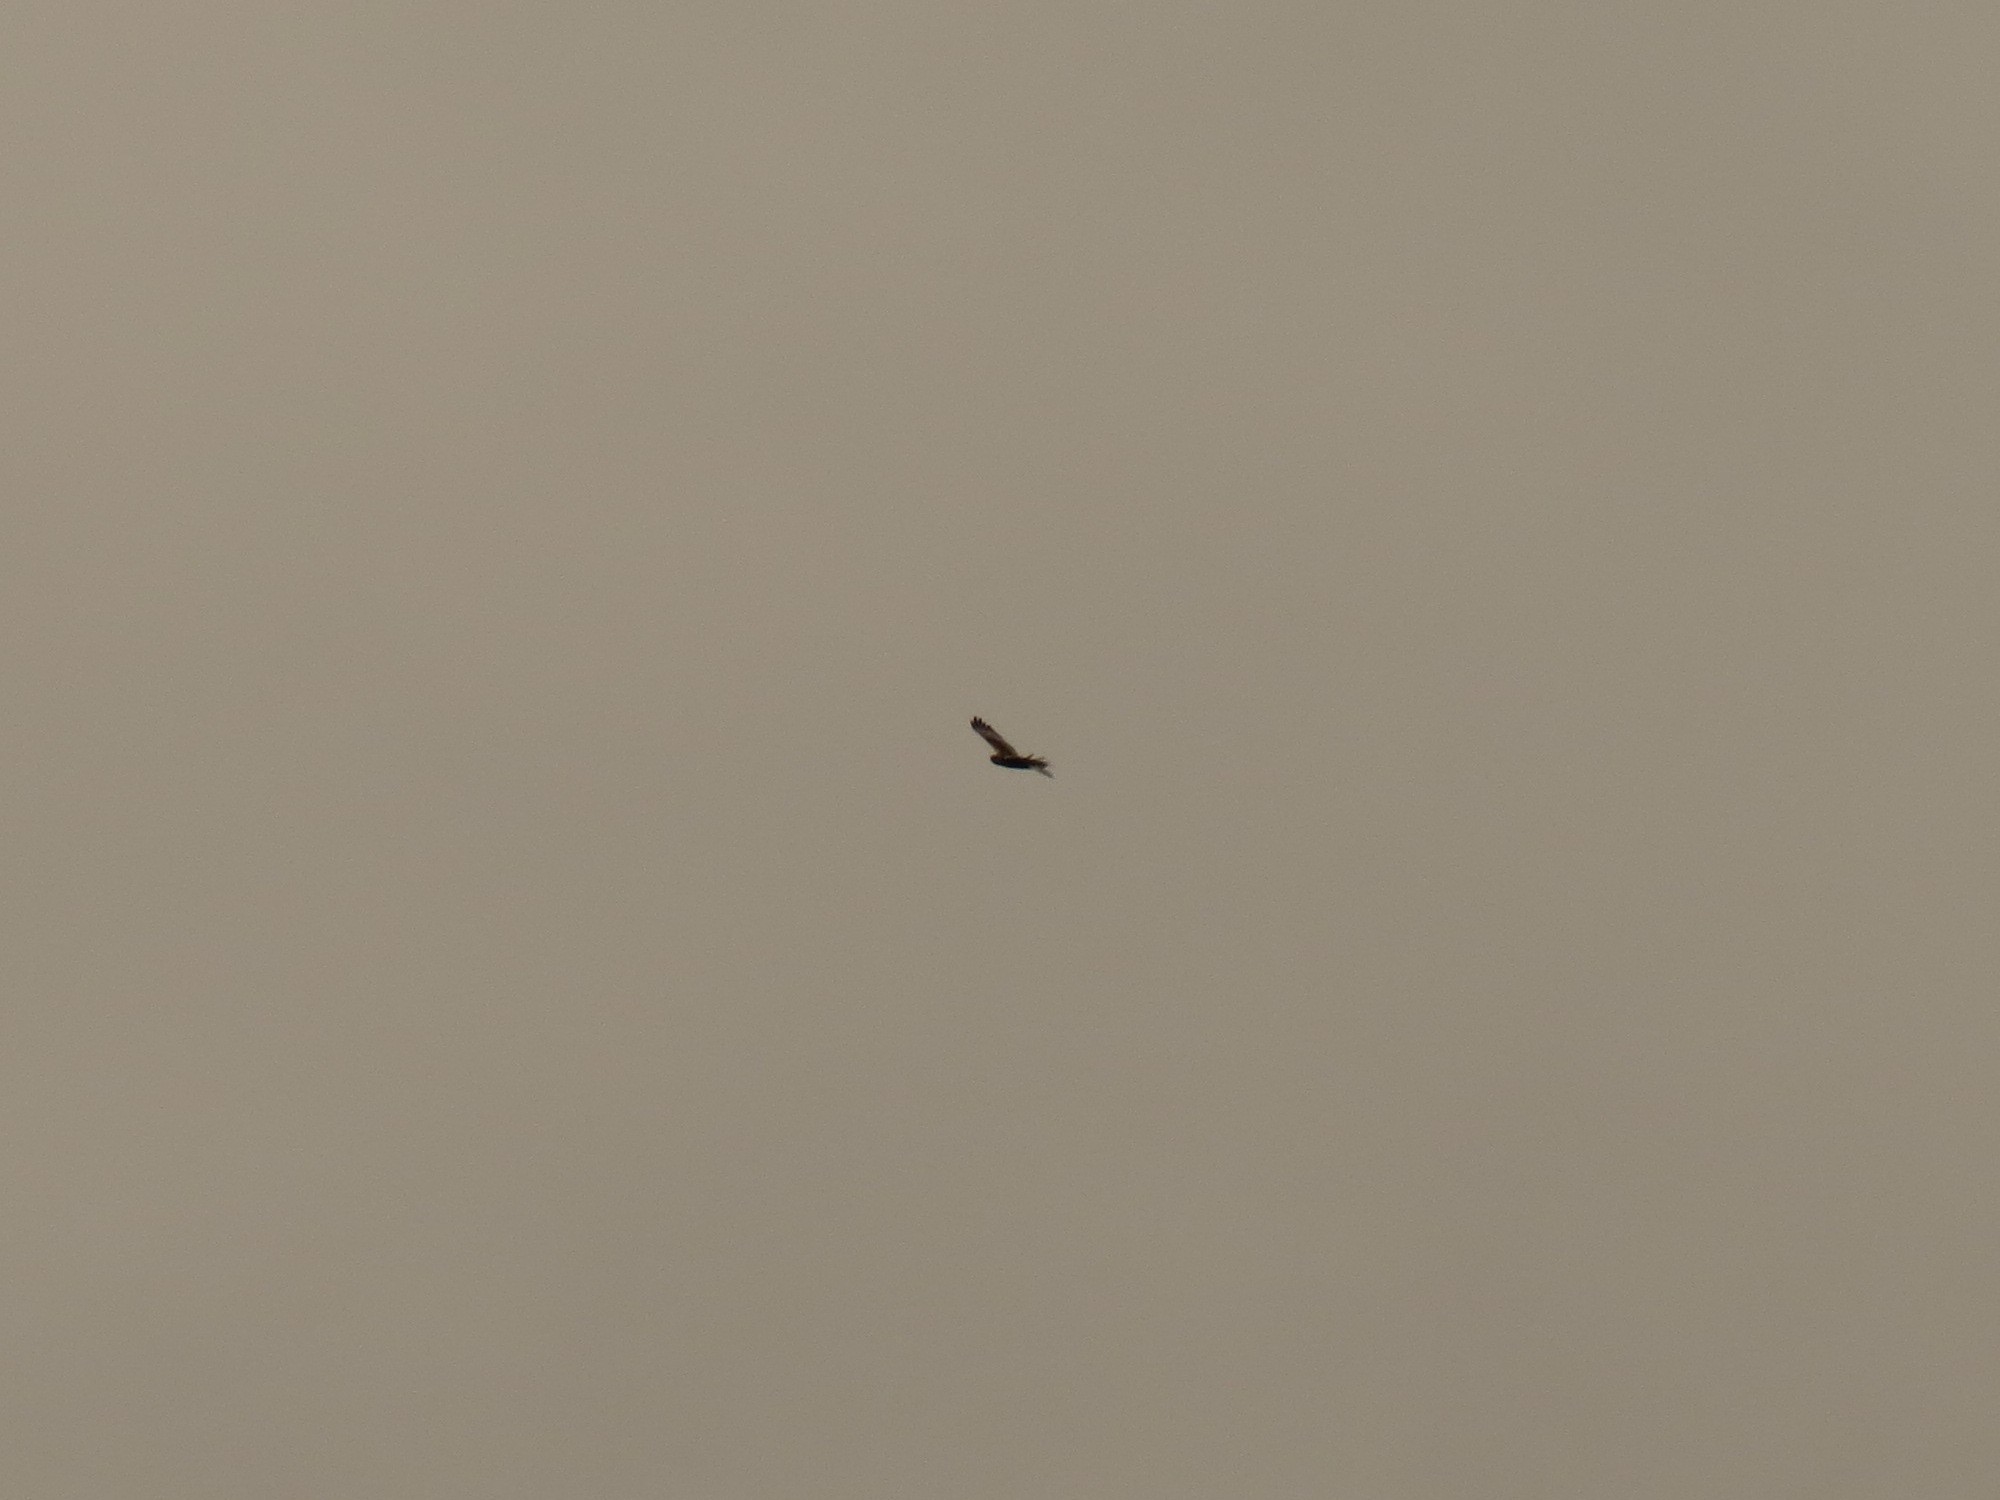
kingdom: Animalia
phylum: Chordata
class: Aves
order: Accipitriformes
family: Accipitridae
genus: Circus
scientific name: Circus aeruginosus
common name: Western marsh harrier
